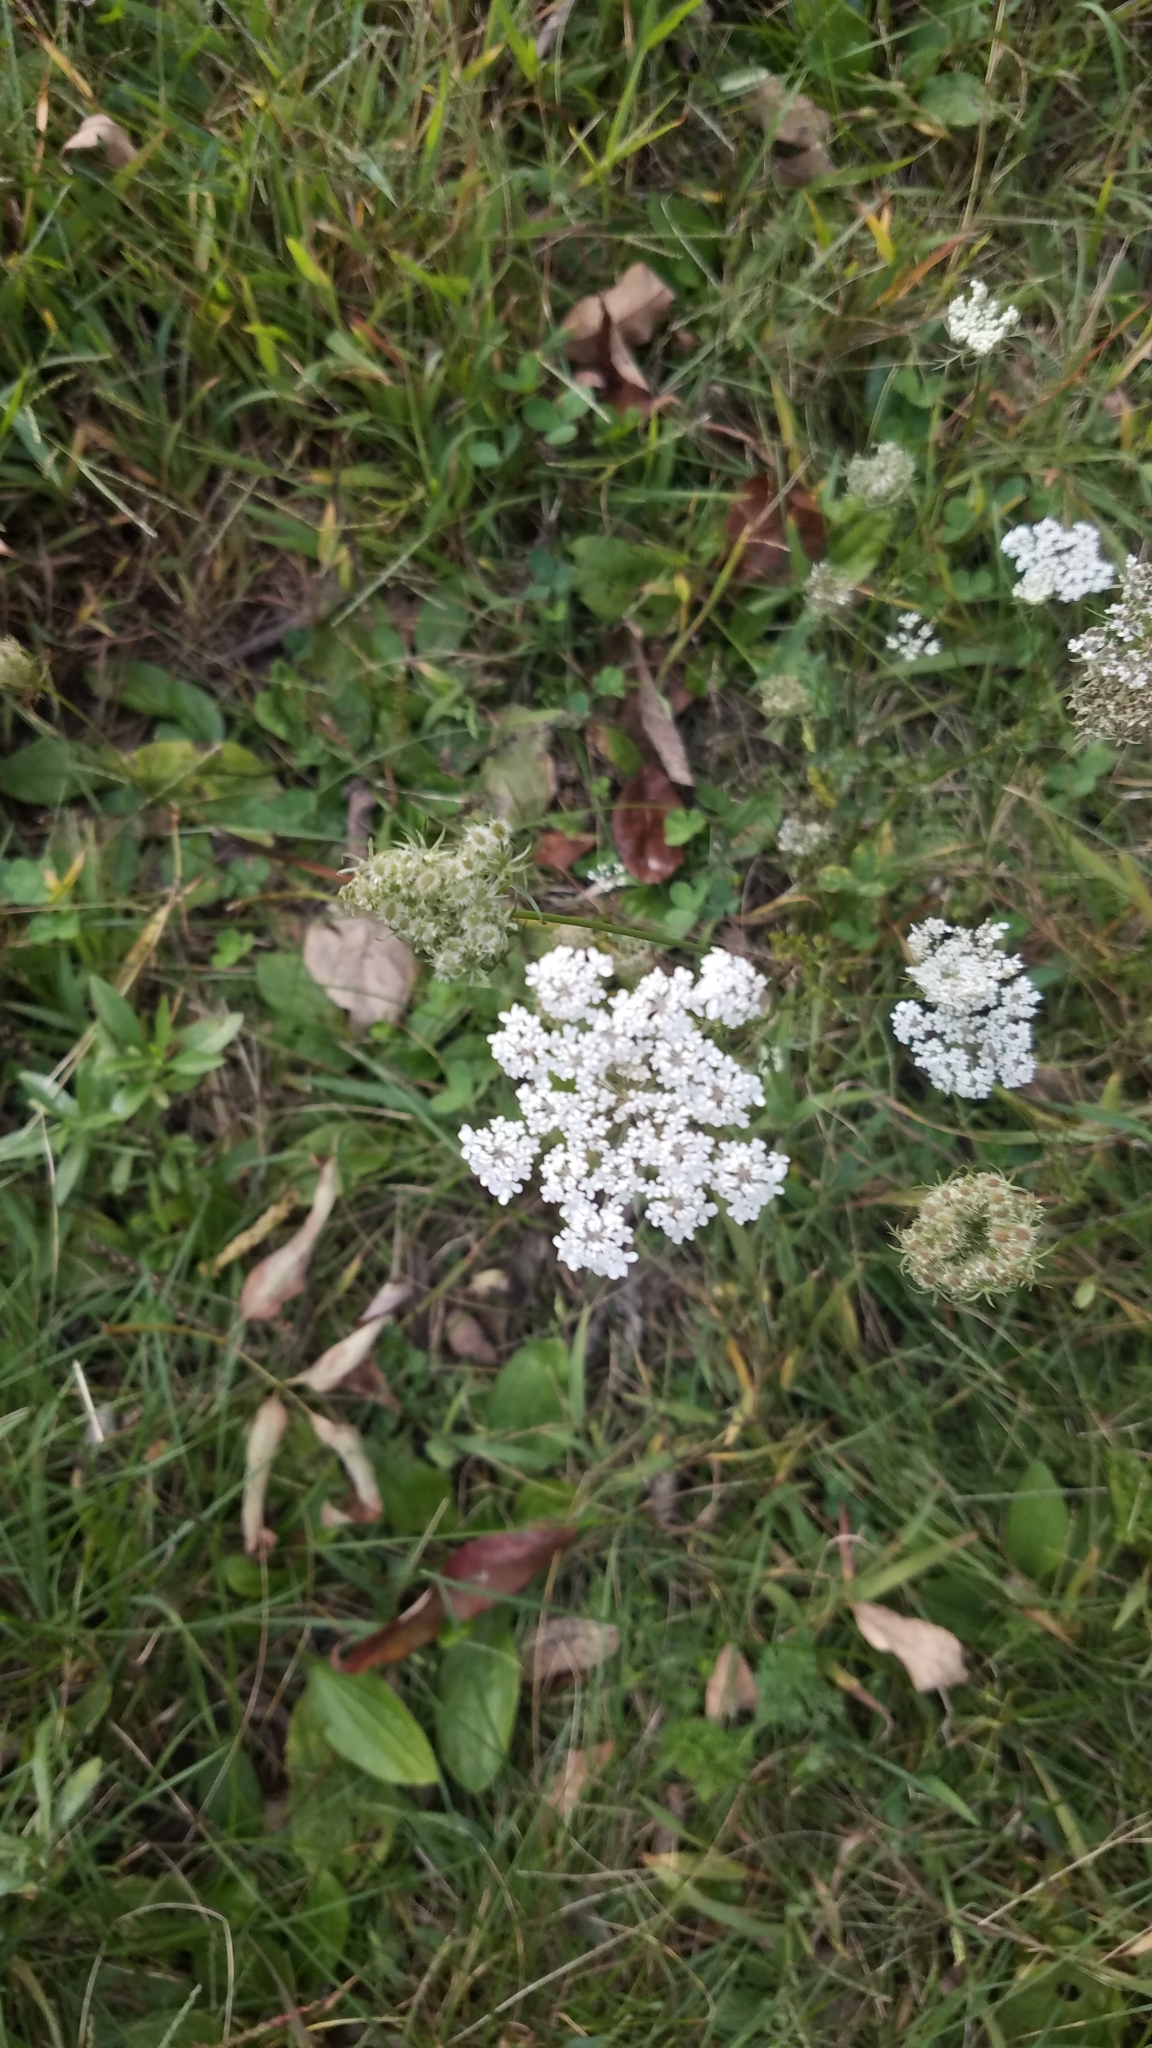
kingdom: Plantae
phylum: Tracheophyta
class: Magnoliopsida
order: Apiales
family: Apiaceae
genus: Daucus
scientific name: Daucus carota
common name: Wild carrot
